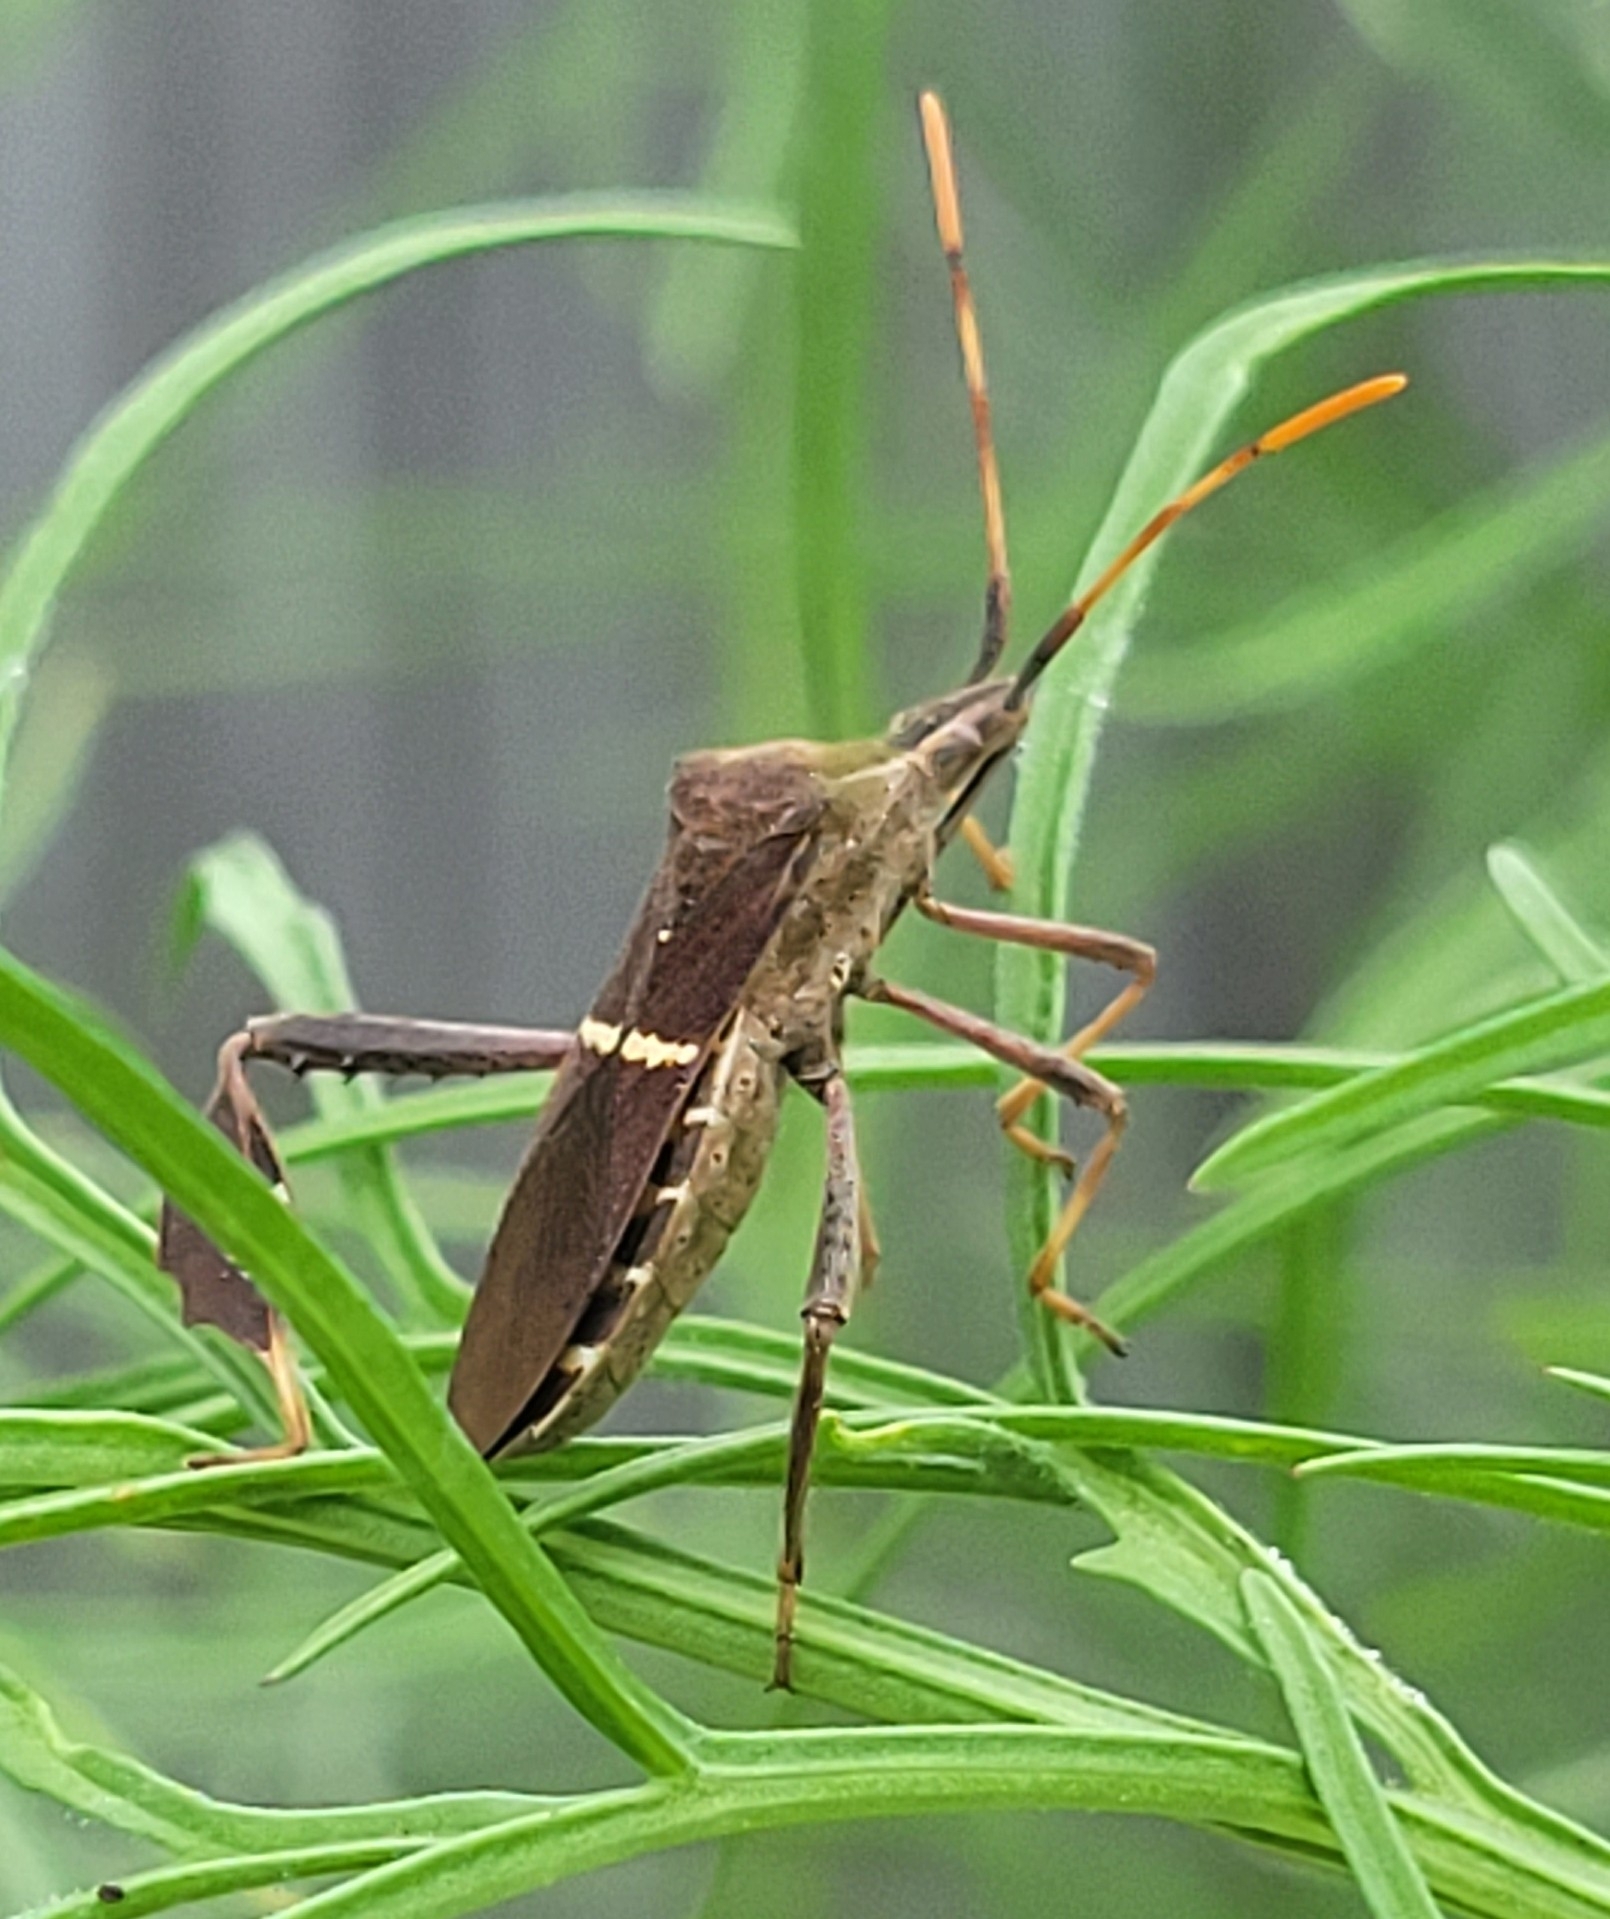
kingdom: Animalia
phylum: Arthropoda
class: Insecta
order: Hemiptera
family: Coreidae
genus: Leptoglossus
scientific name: Leptoglossus phyllopus
